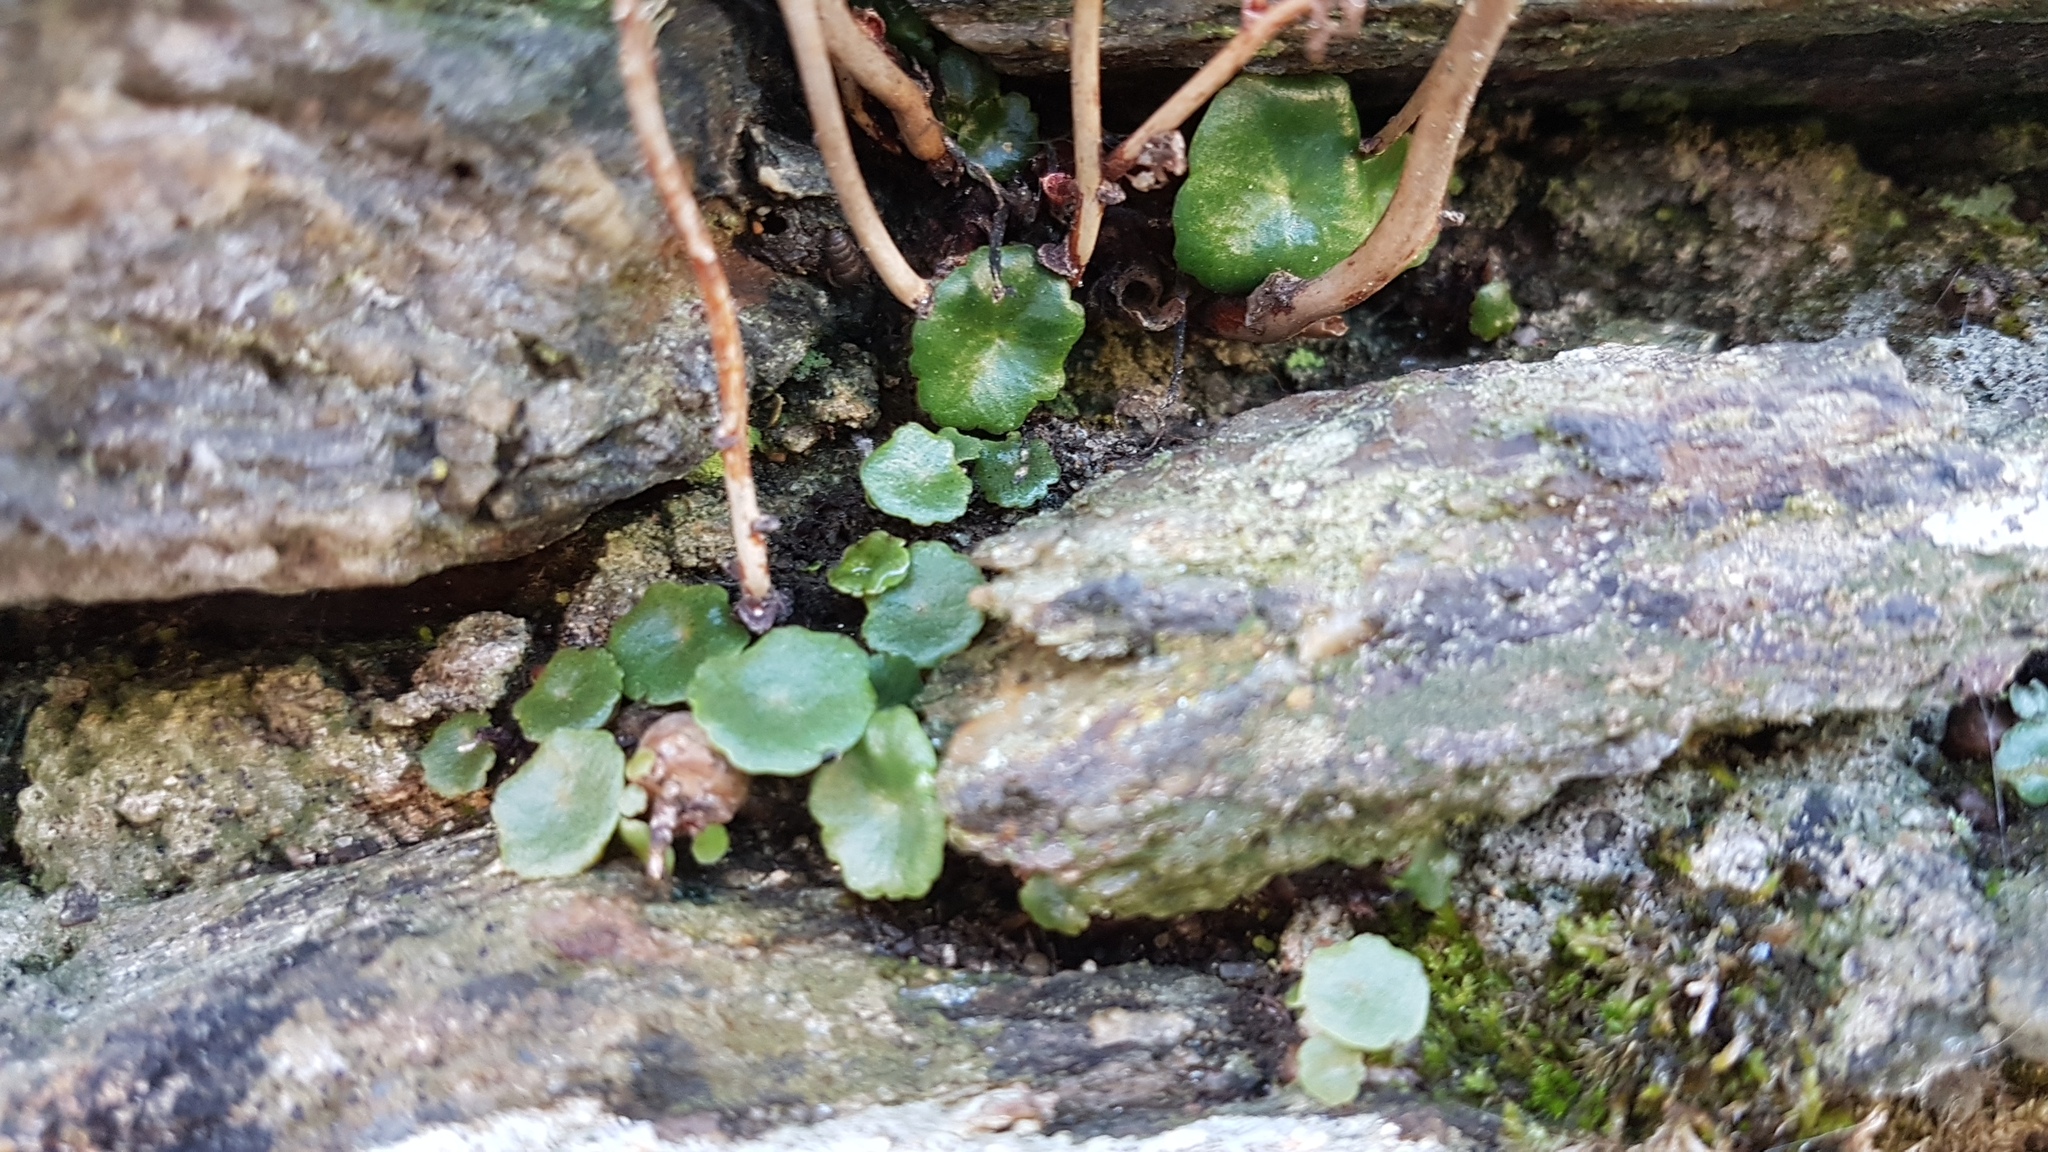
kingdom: Plantae
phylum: Tracheophyta
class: Magnoliopsida
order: Saxifragales
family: Crassulaceae
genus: Umbilicus
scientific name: Umbilicus rupestris
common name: Navelwort
